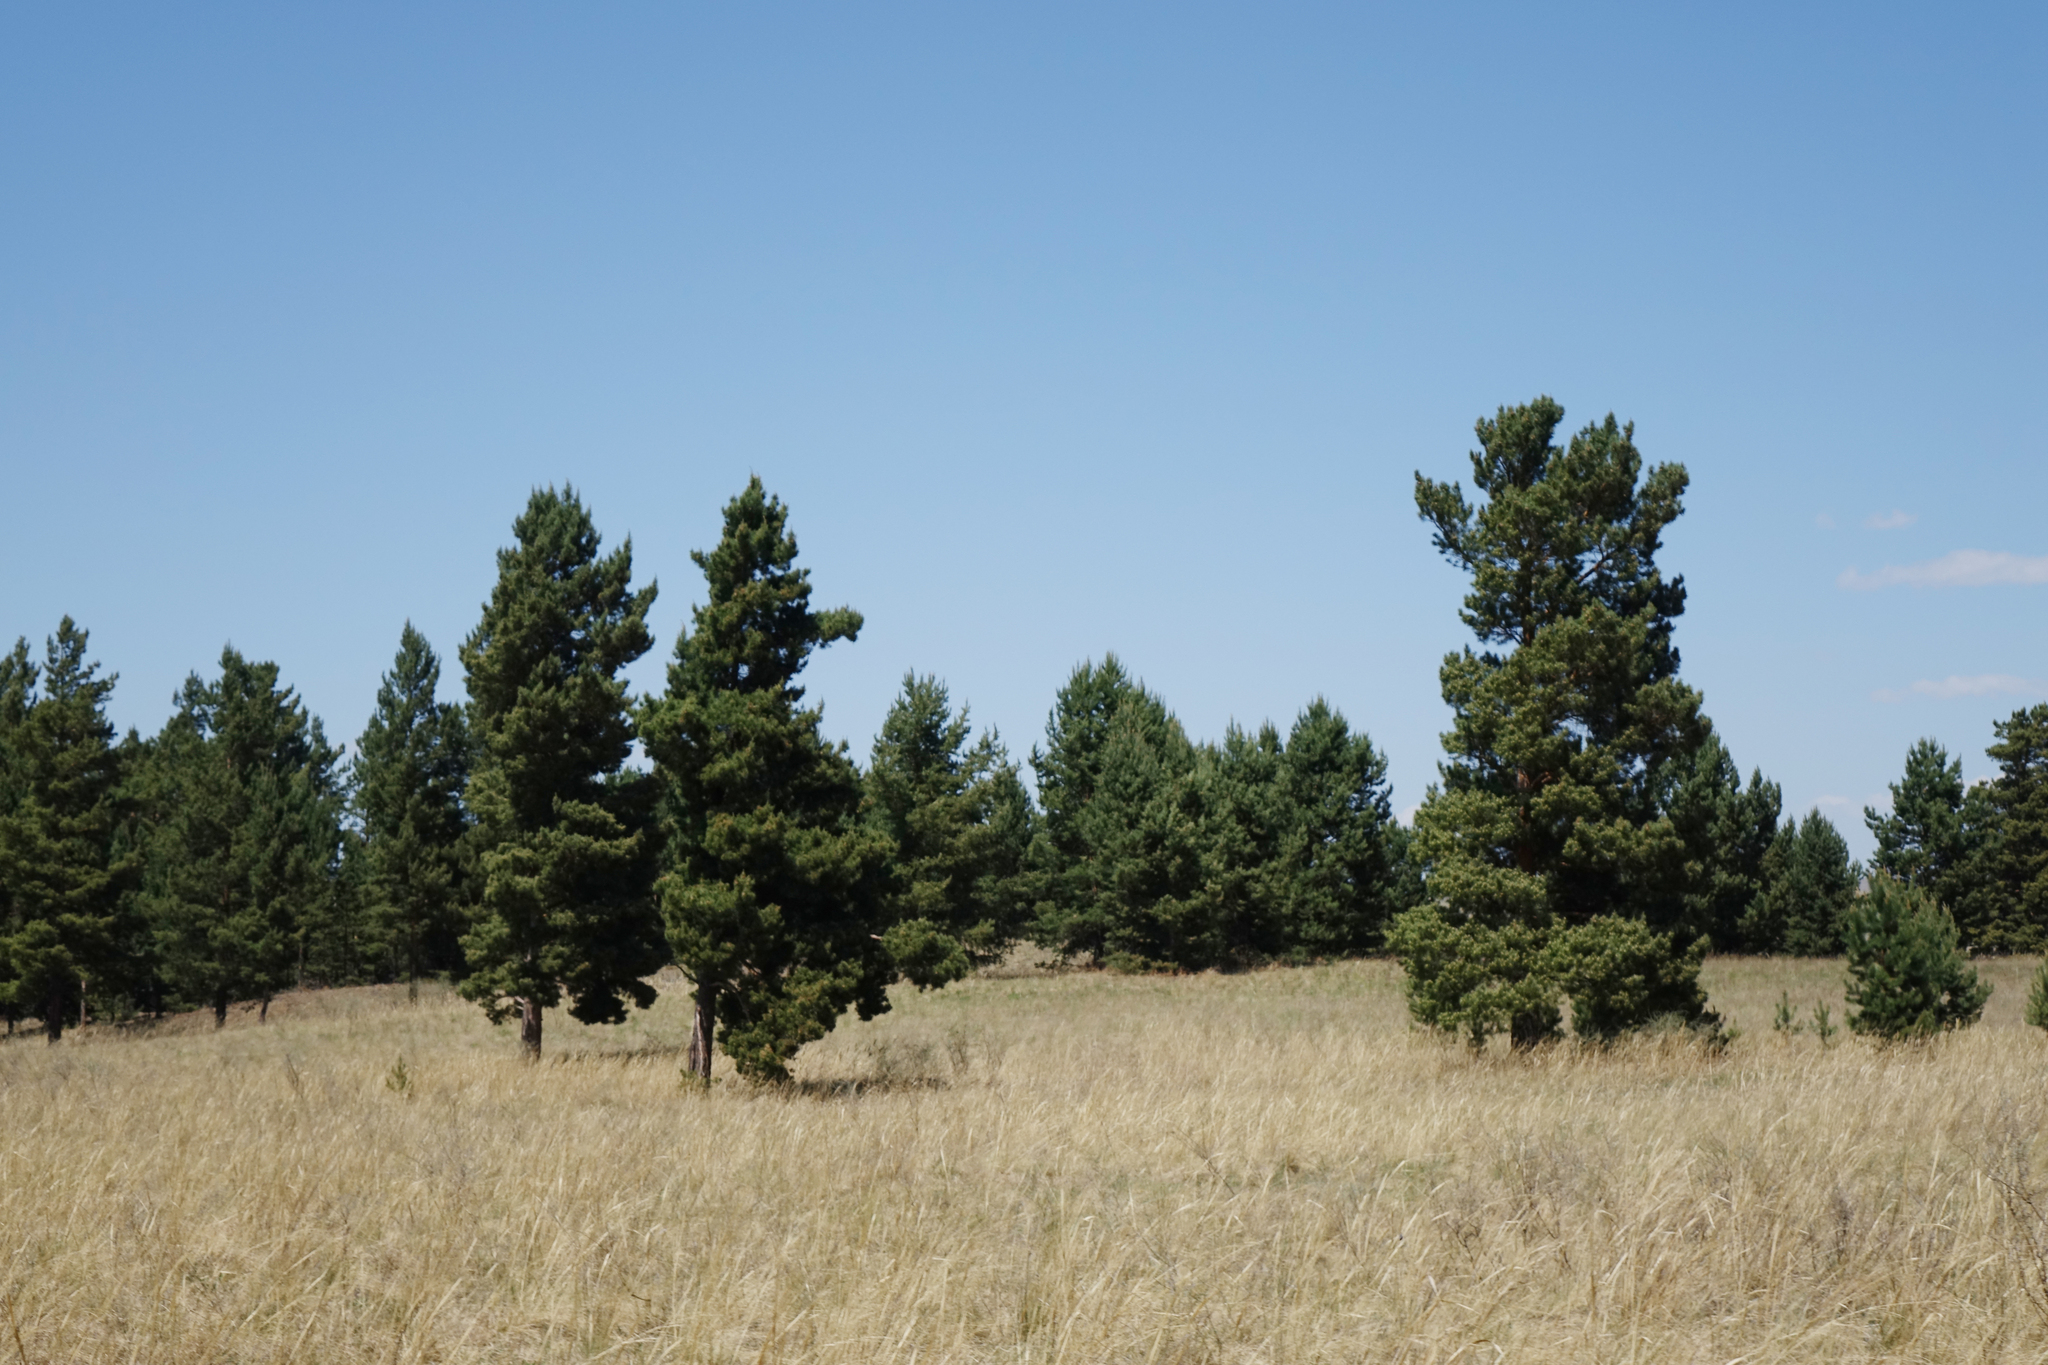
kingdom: Plantae
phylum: Tracheophyta
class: Pinopsida
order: Pinales
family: Pinaceae
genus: Pinus
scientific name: Pinus sylvestris
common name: Scots pine
